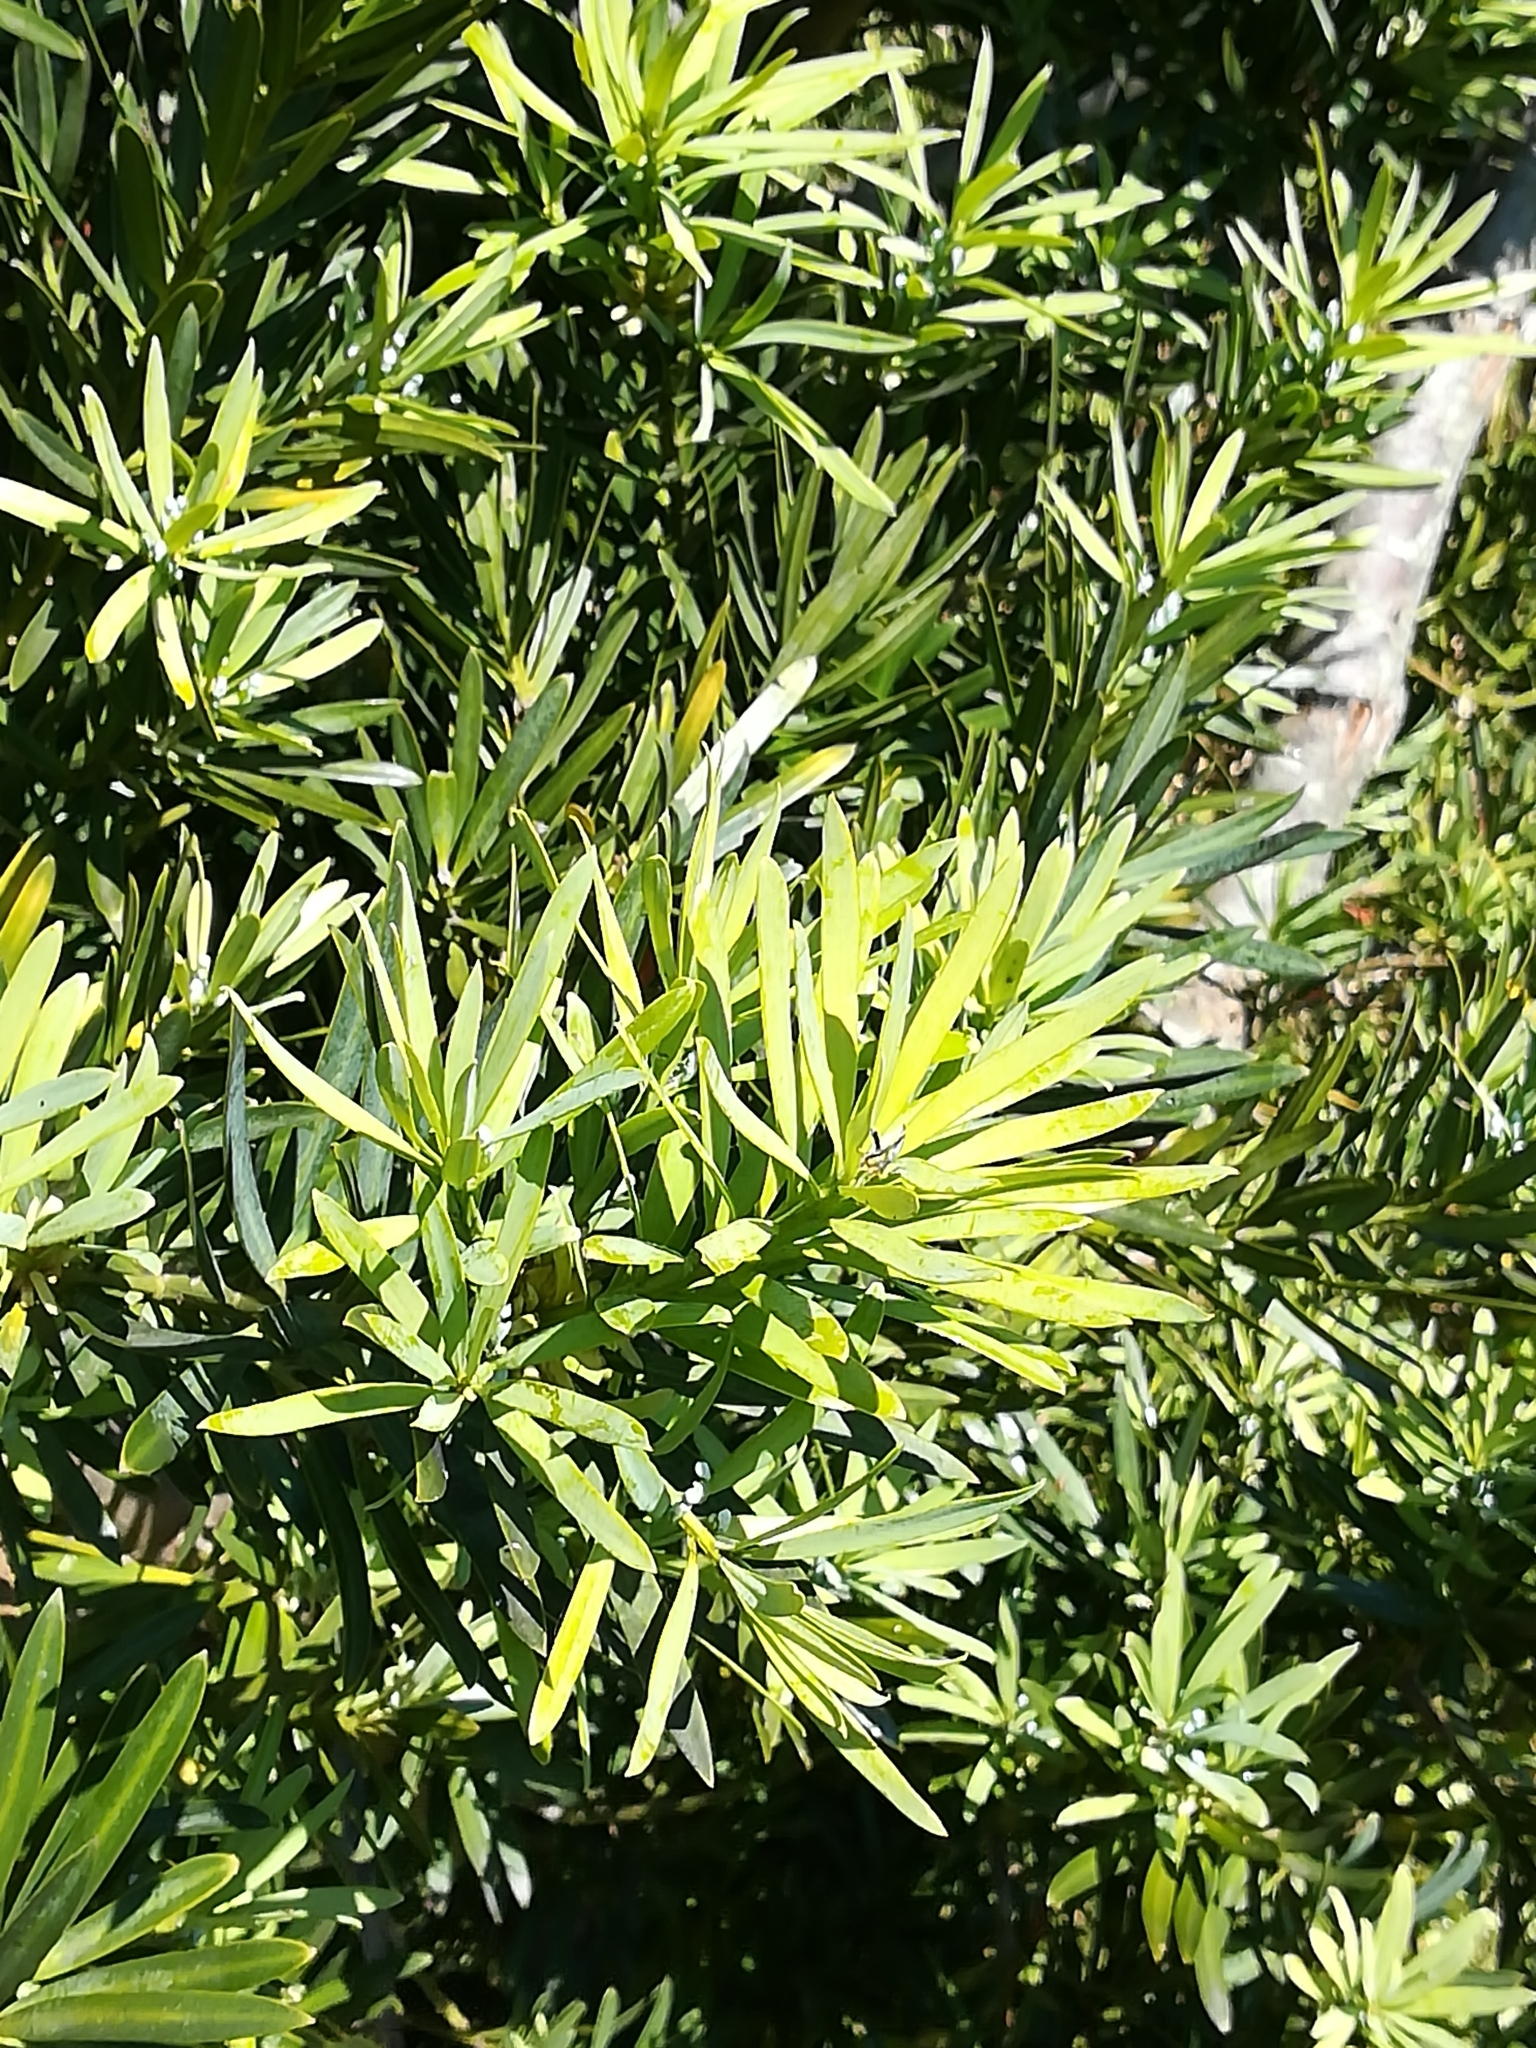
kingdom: Plantae
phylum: Tracheophyta
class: Pinopsida
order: Pinales
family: Podocarpaceae
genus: Podocarpus
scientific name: Podocarpus latifolius
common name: True yellowwood
